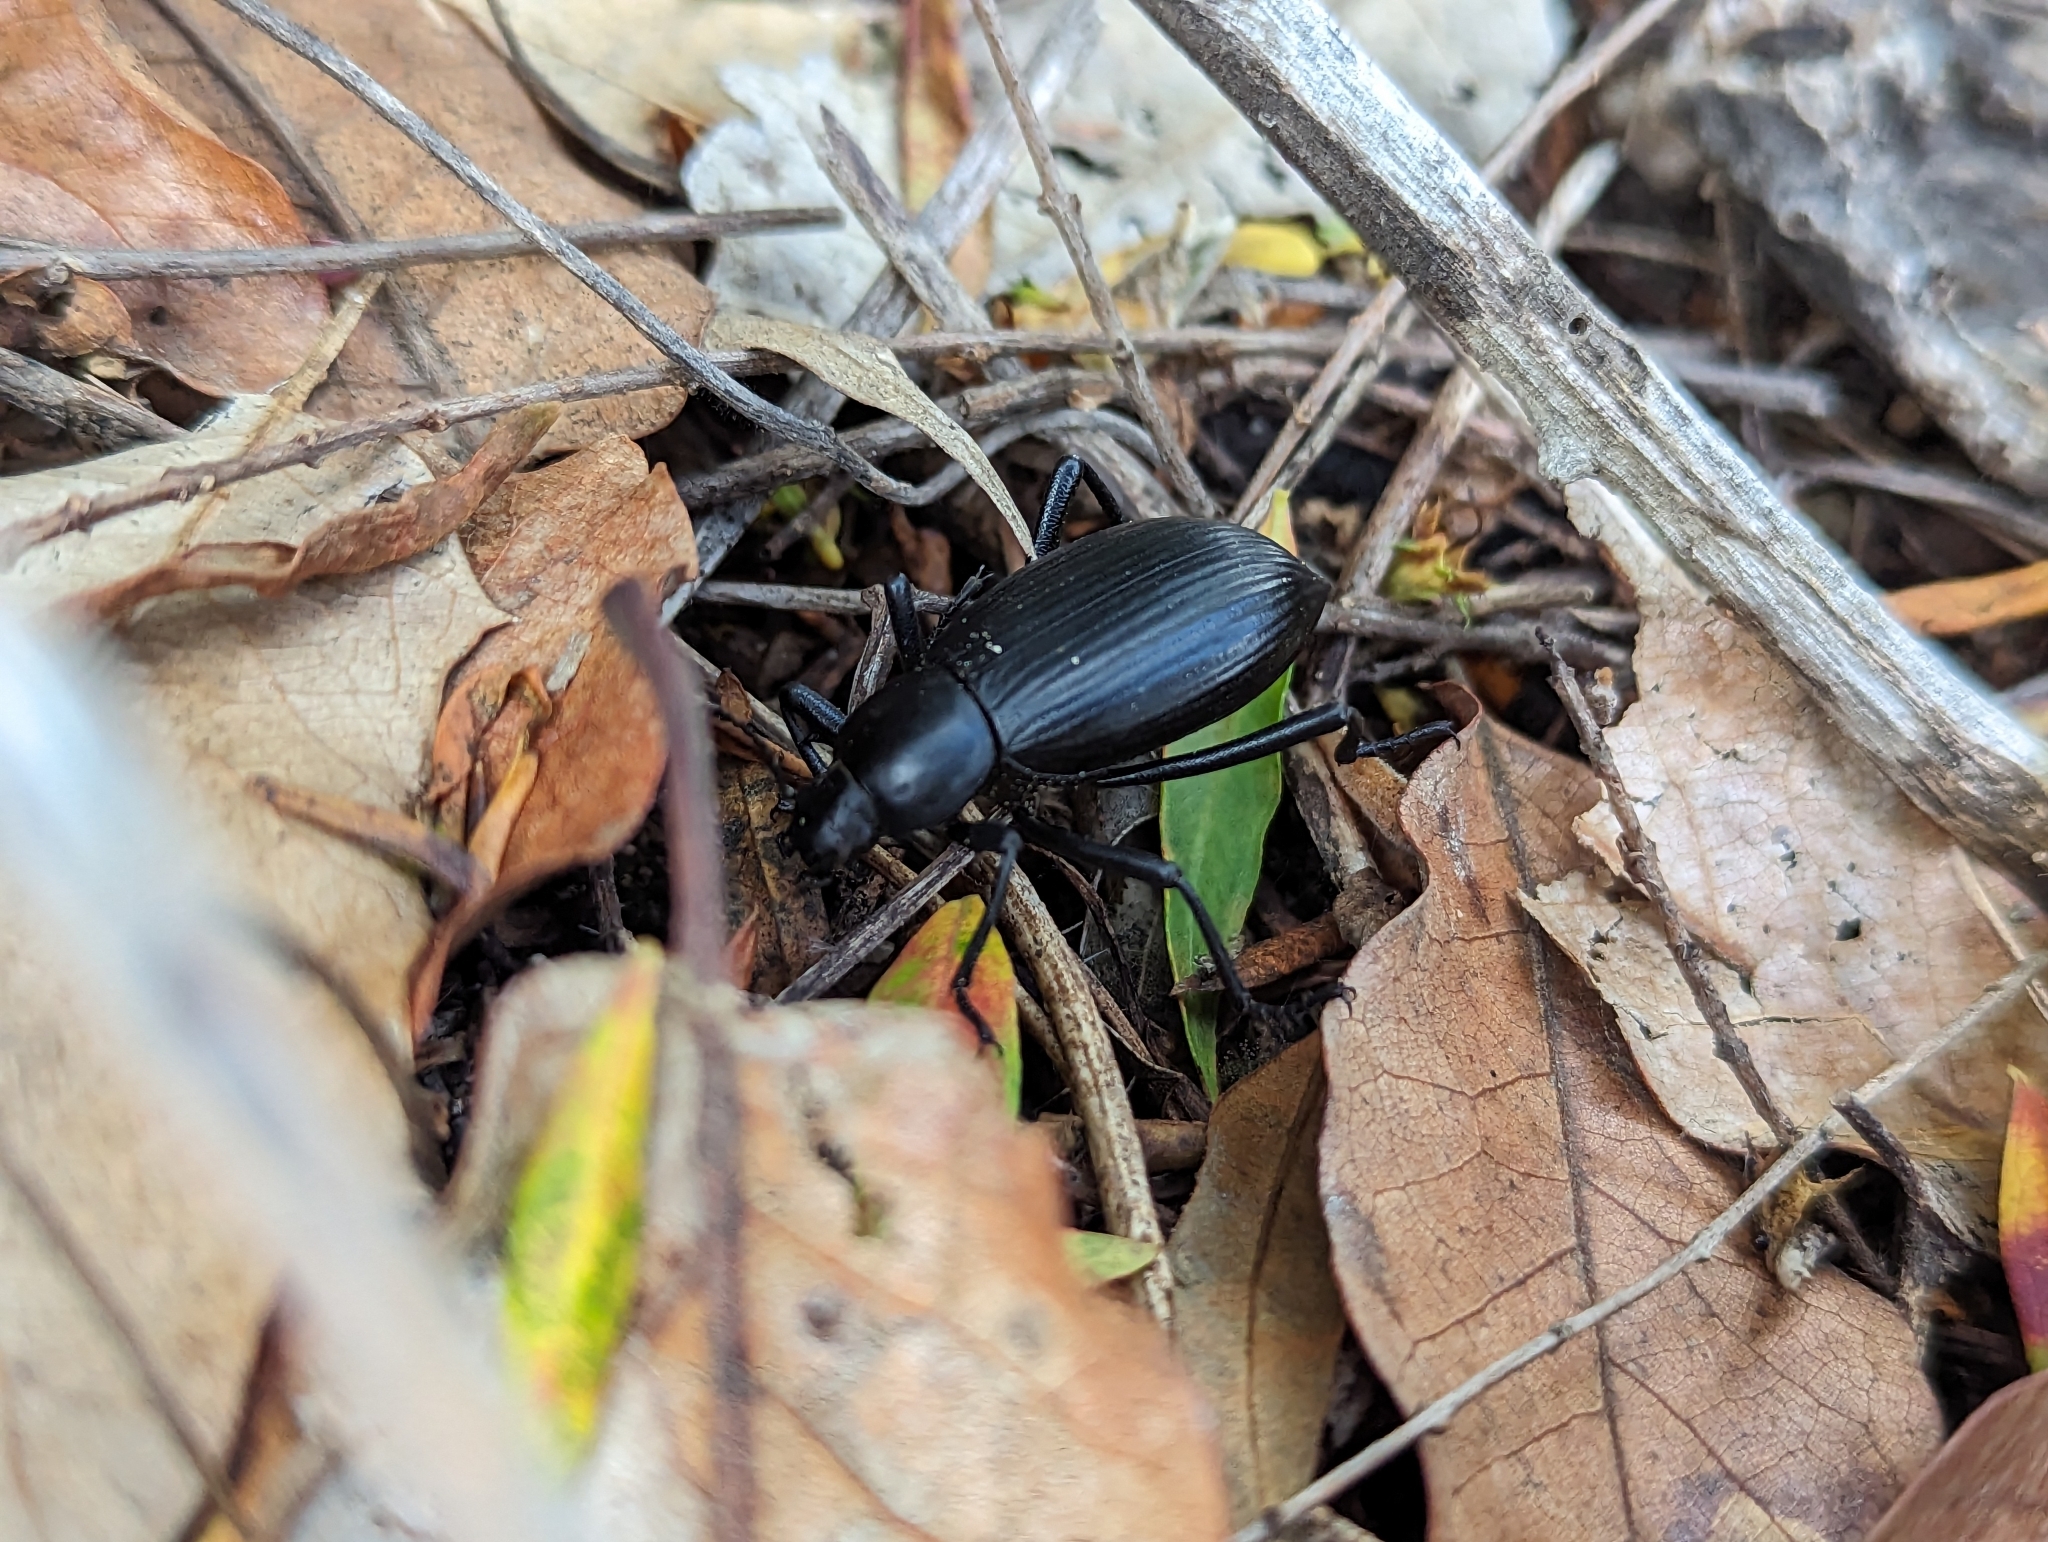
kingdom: Animalia
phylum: Arthropoda
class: Insecta
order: Coleoptera
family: Tenebrionidae
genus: Eleodes
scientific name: Eleodes eschscholtzii
